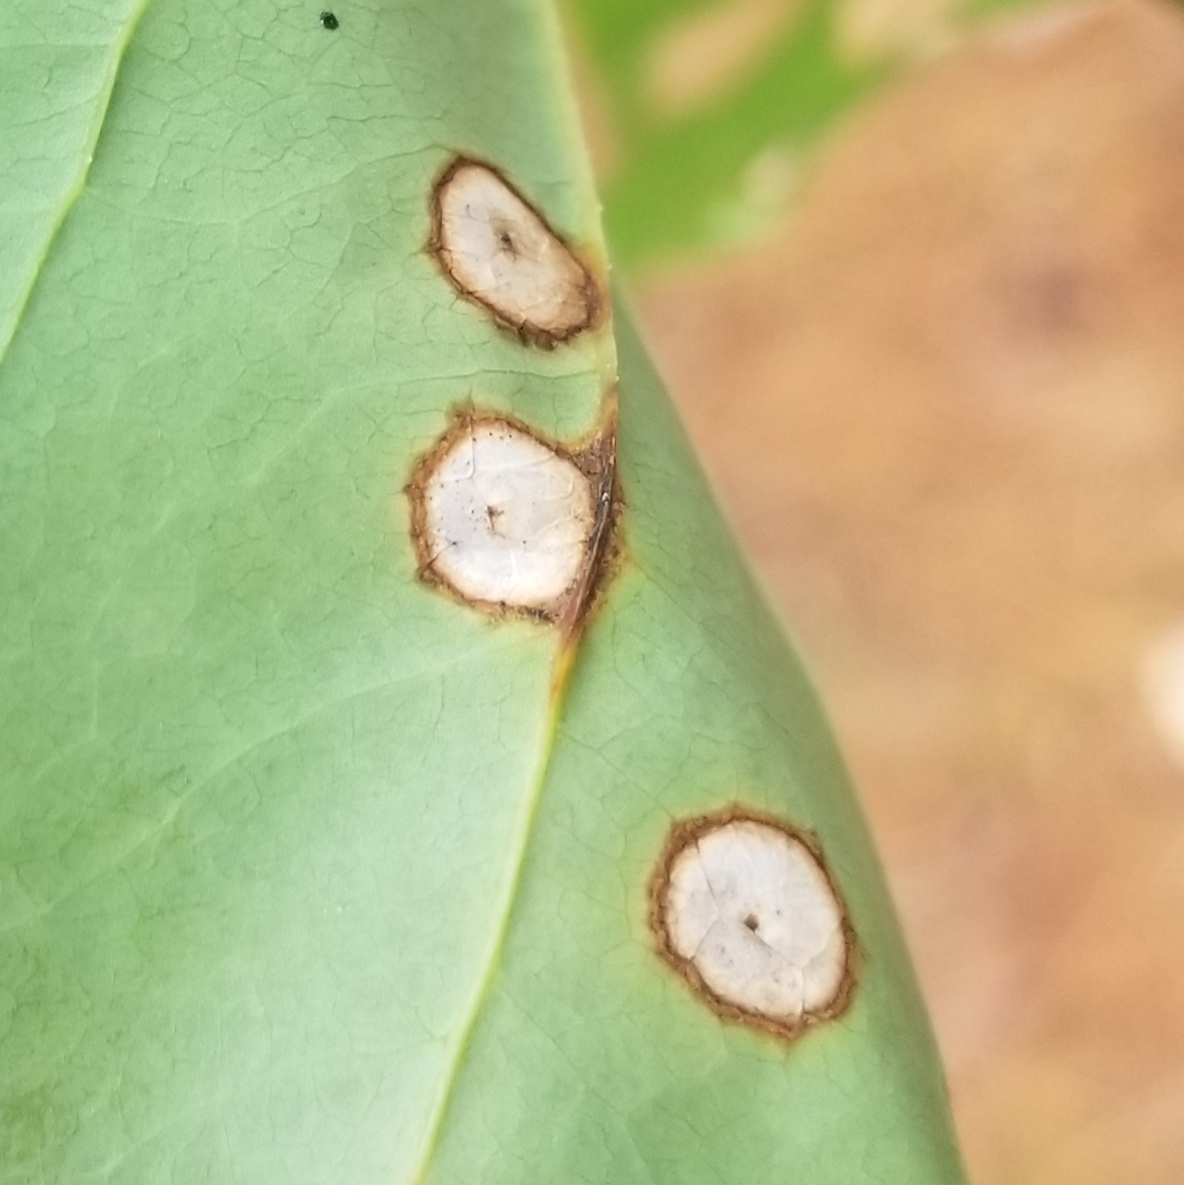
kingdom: Plantae
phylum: Tracheophyta
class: Liliopsida
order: Liliales
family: Smilacaceae
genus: Smilax
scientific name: Smilax rotundifolia
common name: Bullbriar
